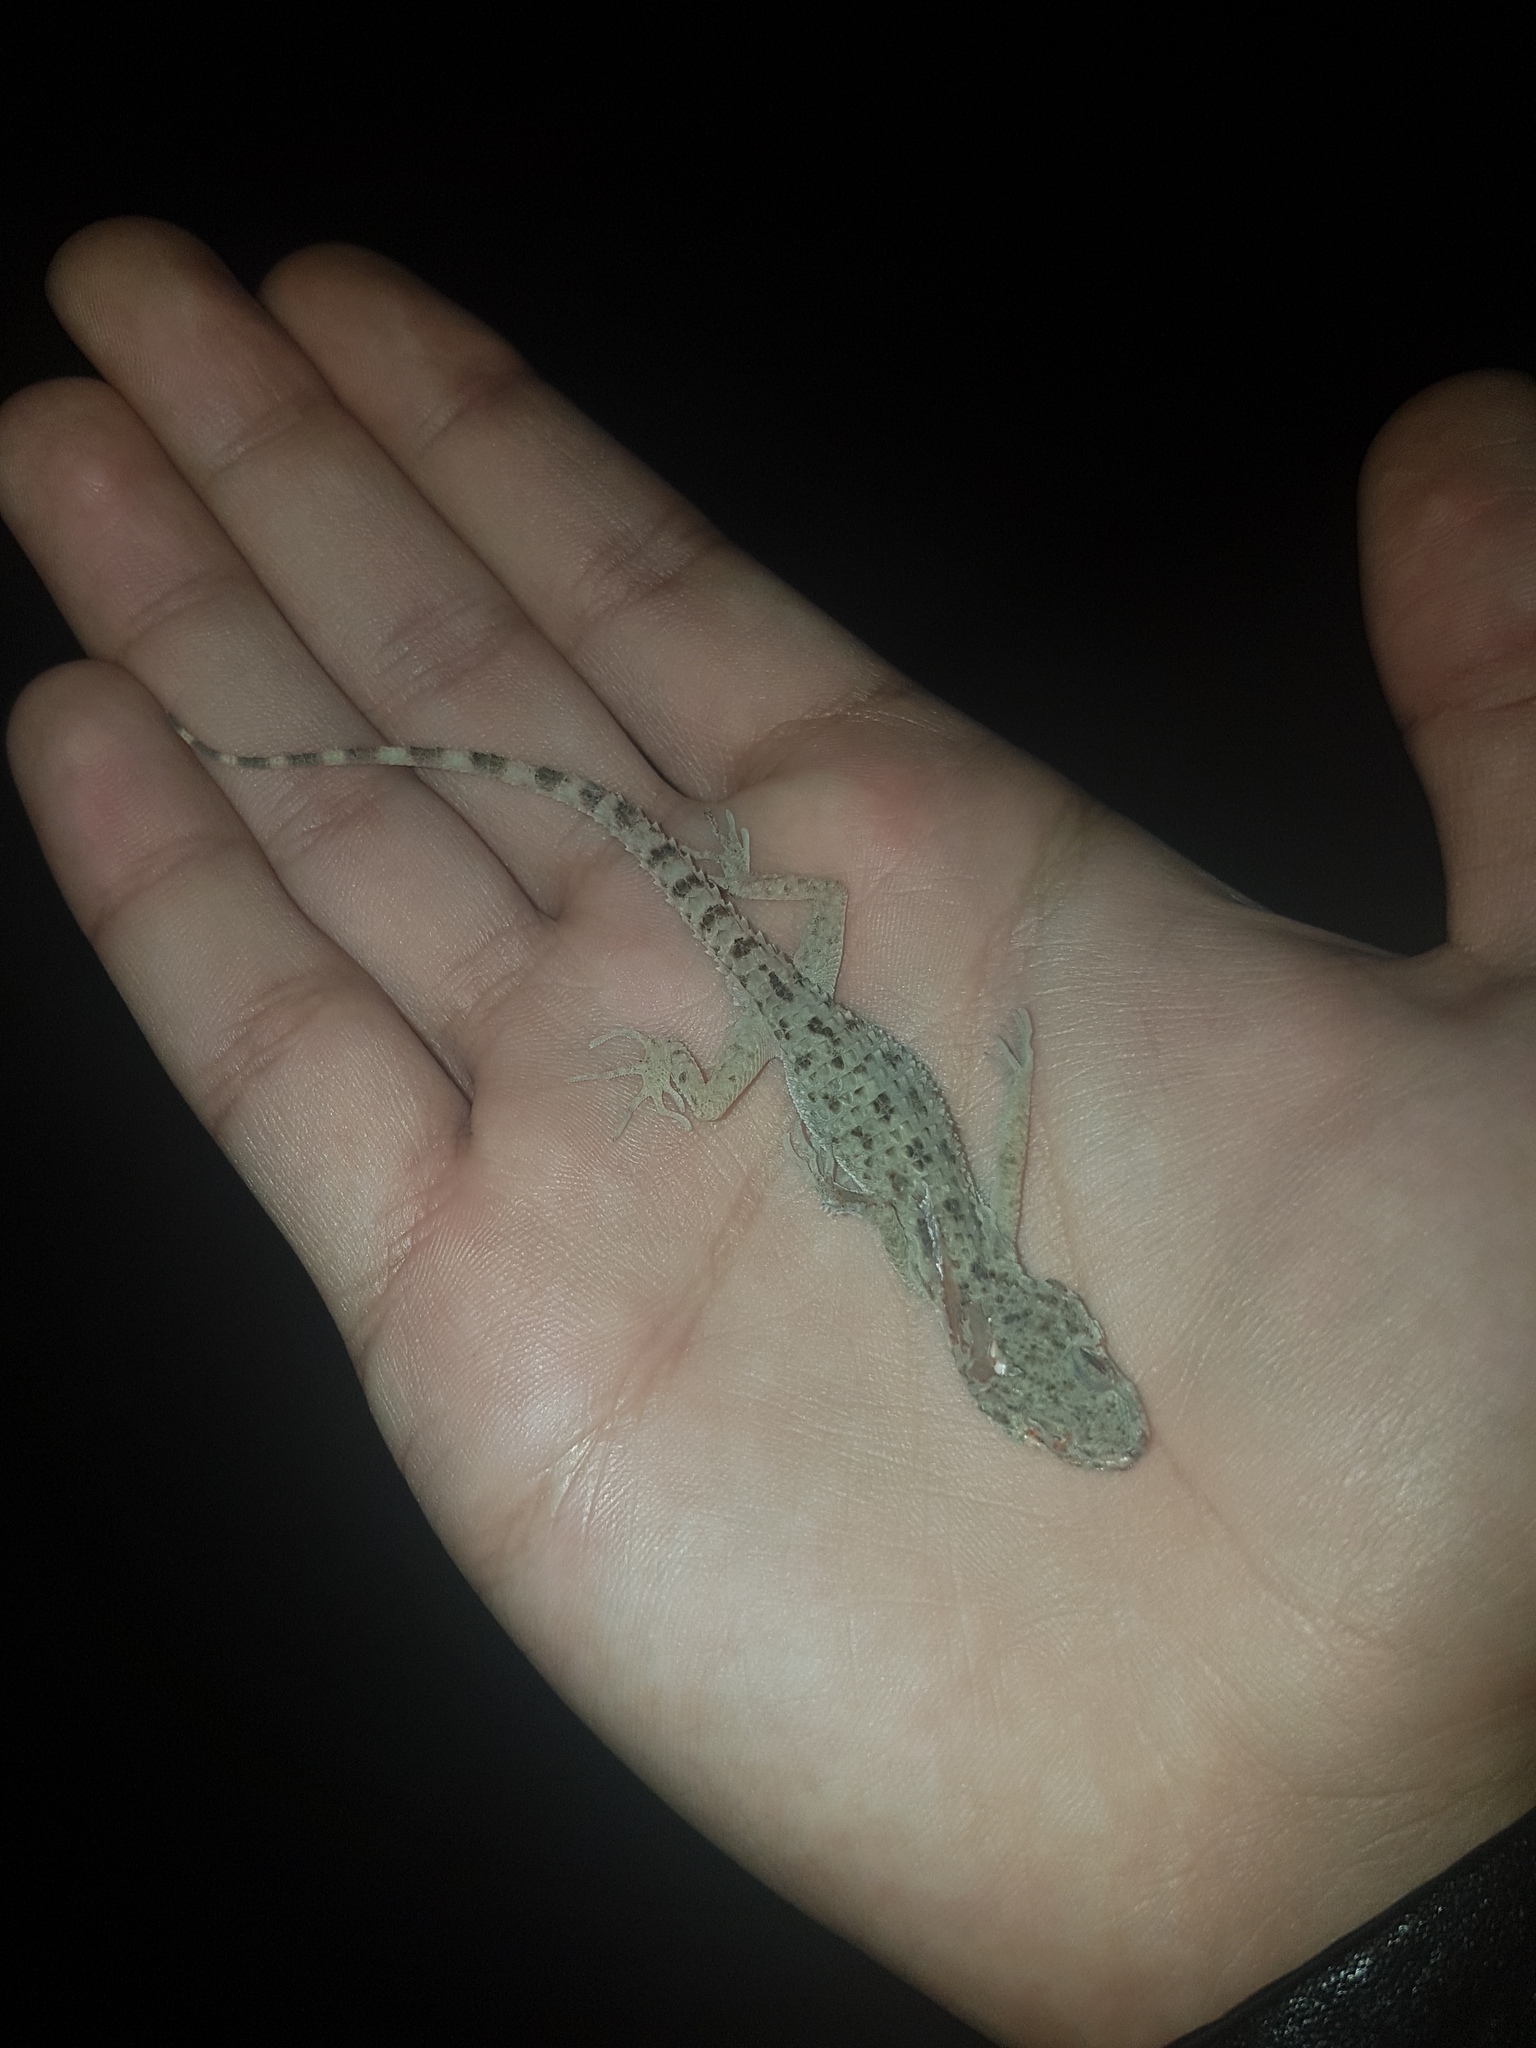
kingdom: Animalia
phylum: Chordata
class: Squamata
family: Gekkonidae
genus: Cyrtopodion
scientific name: Cyrtopodion scabrum
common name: Rough-tailed gecko
